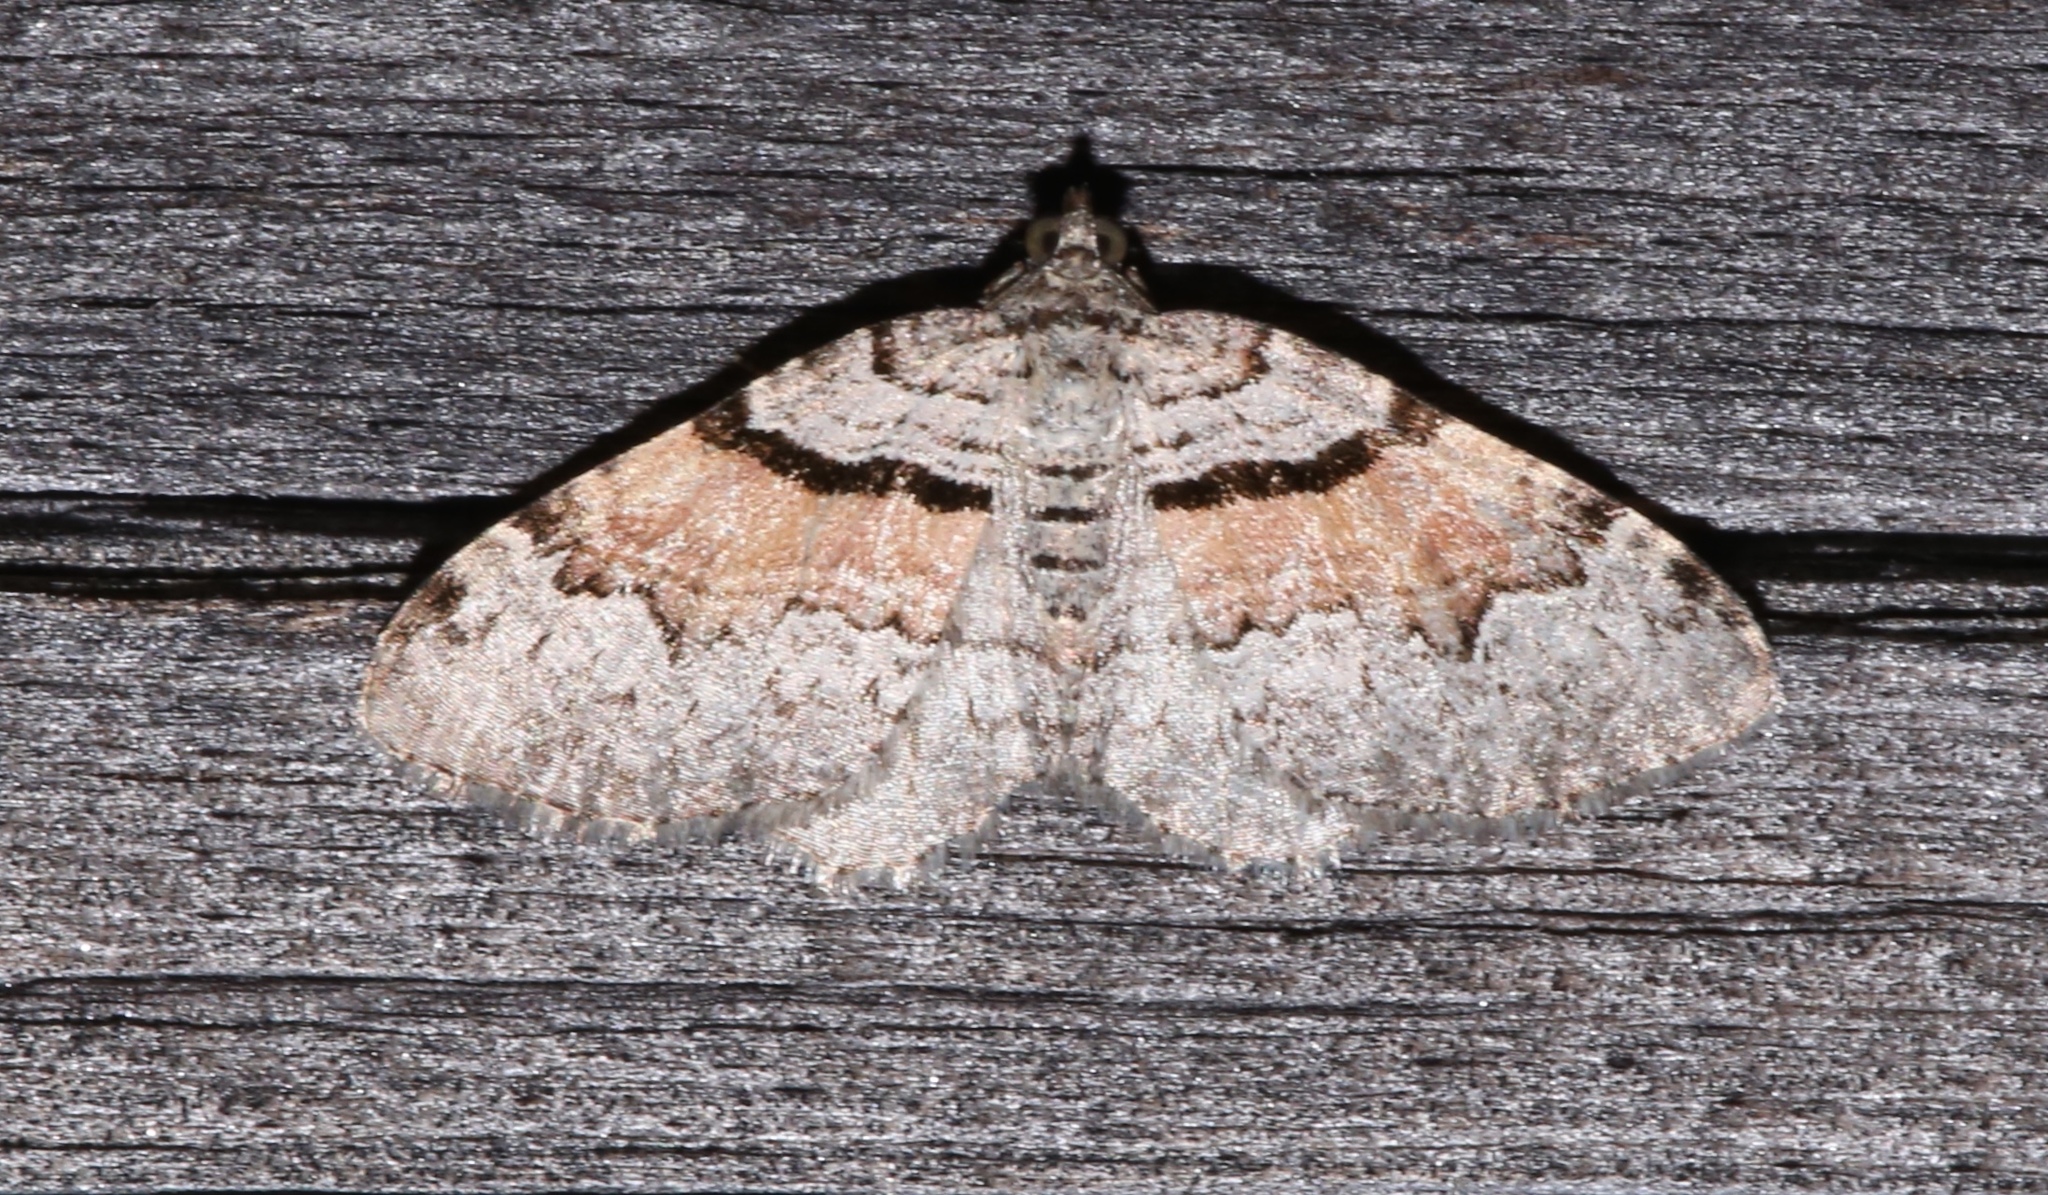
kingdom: Animalia
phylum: Arthropoda
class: Insecta
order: Lepidoptera
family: Geometridae
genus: Xanthorhoe
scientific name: Xanthorhoe packardata
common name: Packard's carpet
